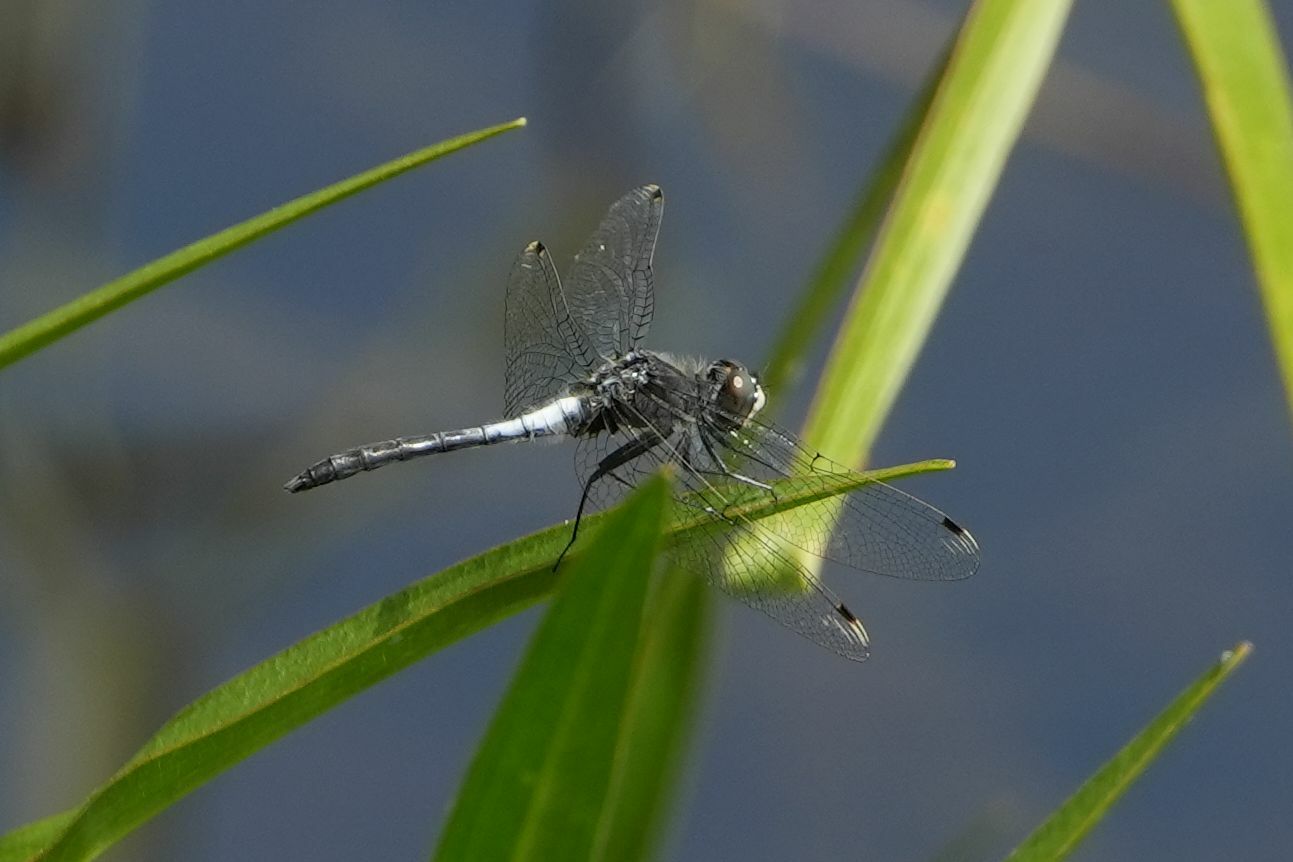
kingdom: Animalia
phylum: Arthropoda
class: Insecta
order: Odonata
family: Libellulidae
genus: Leucorrhinia
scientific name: Leucorrhinia frigida
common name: Frosted whiteface
